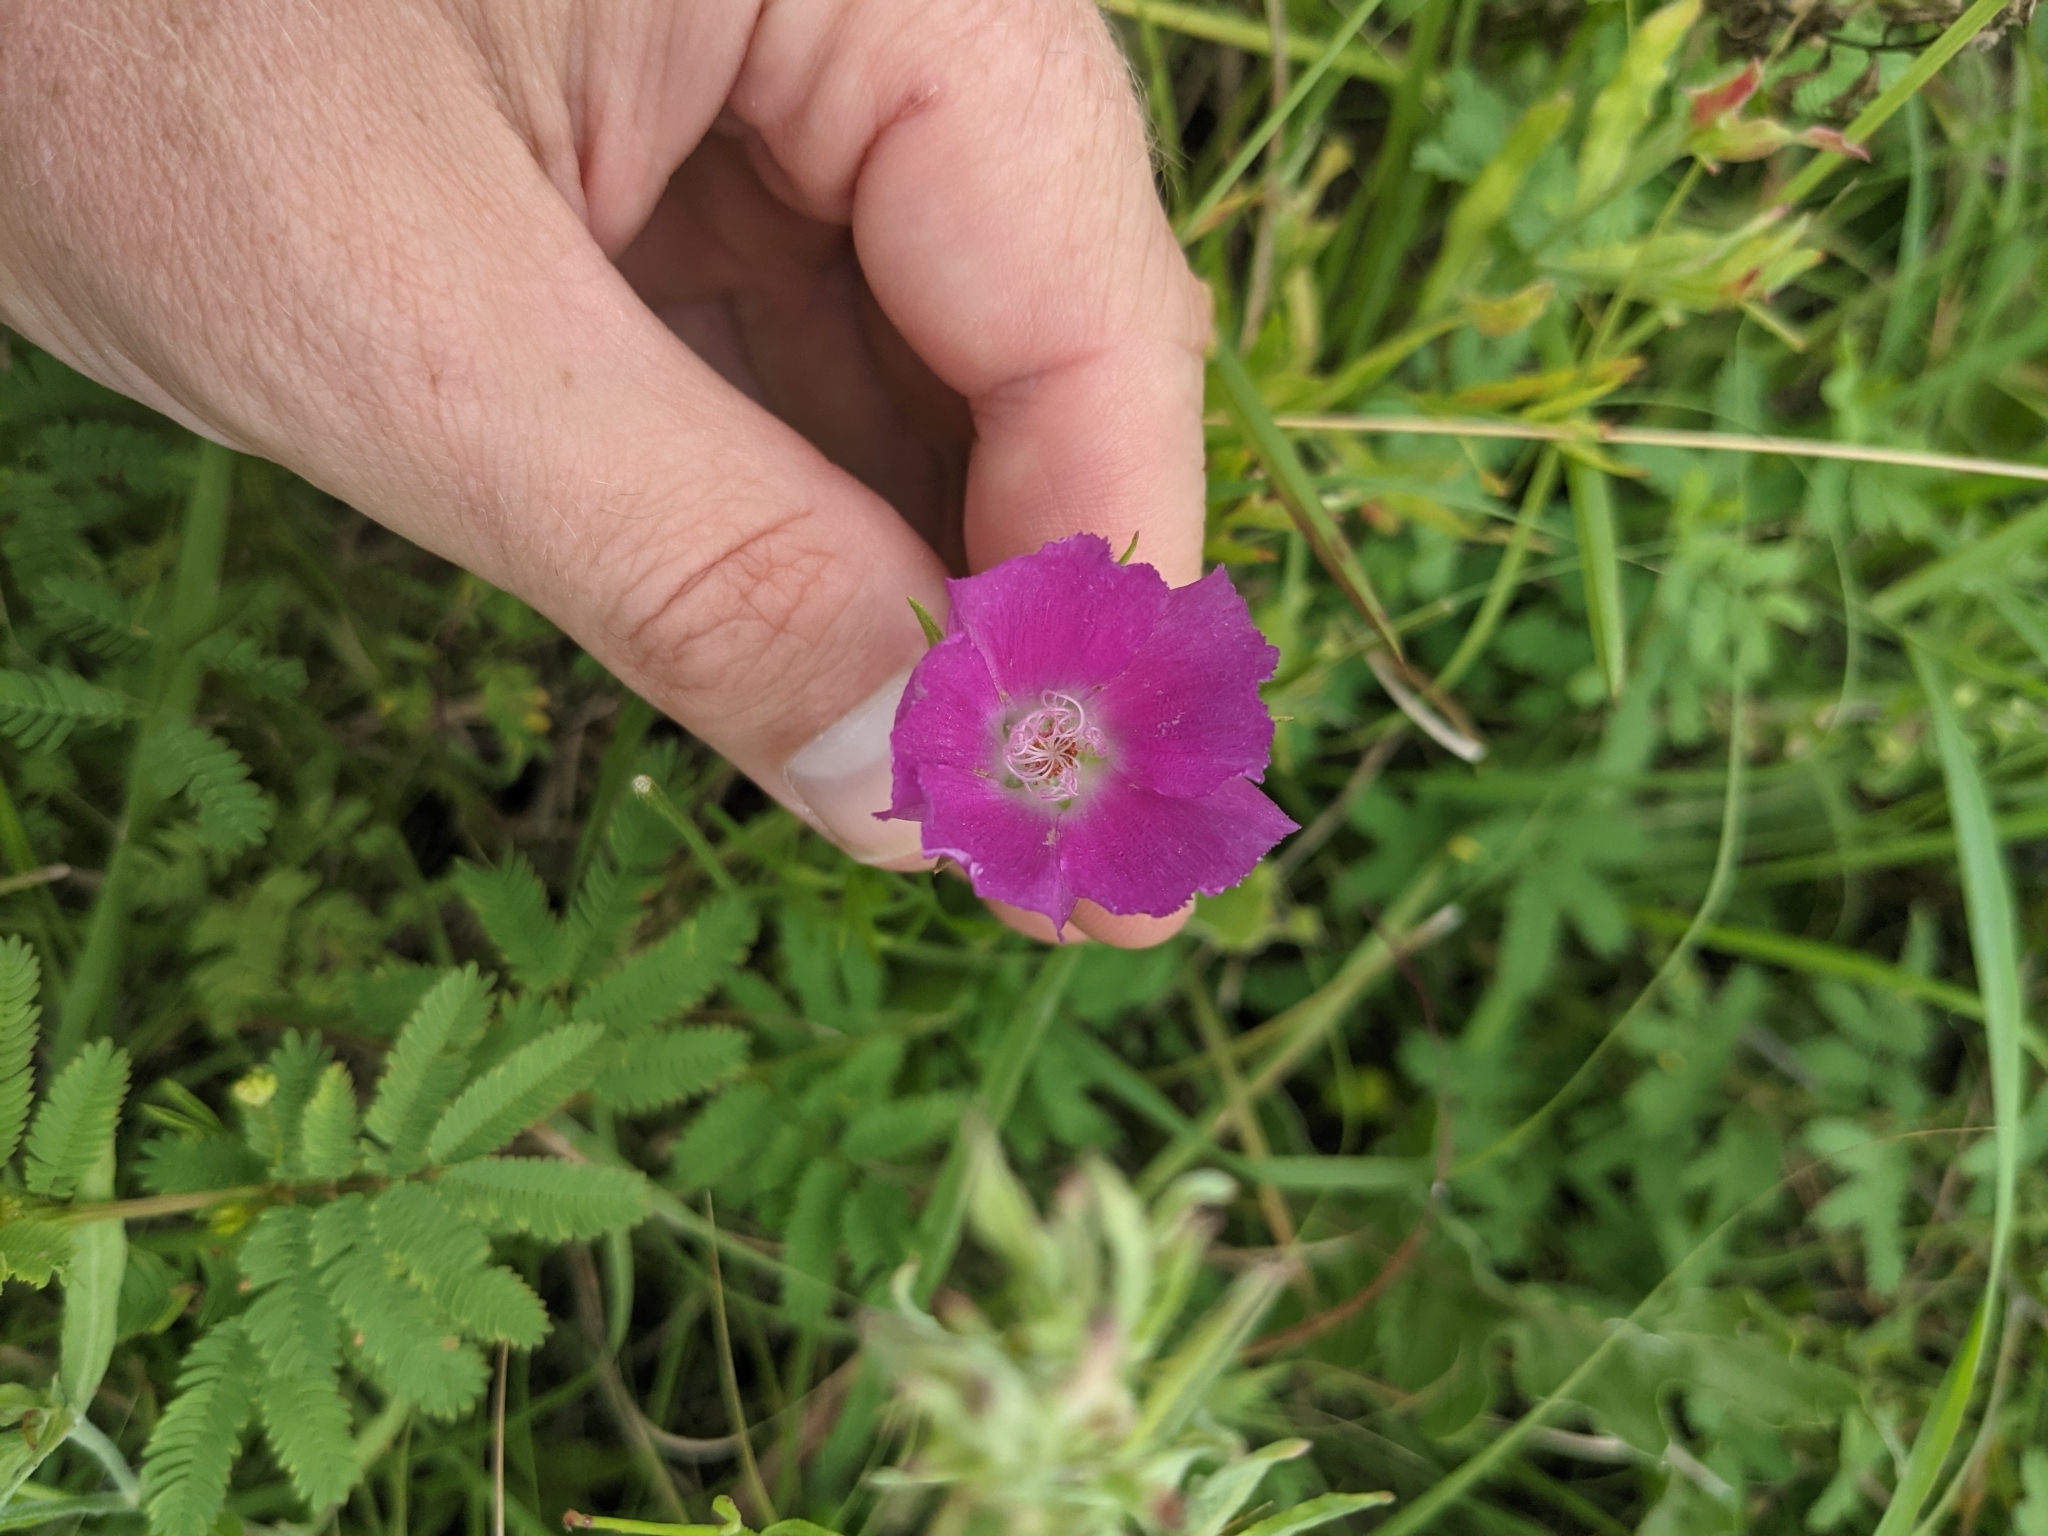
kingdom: Plantae
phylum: Tracheophyta
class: Magnoliopsida
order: Malvales
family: Malvaceae
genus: Callirhoe
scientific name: Callirhoe involucrata
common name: Purple poppy-mallow
